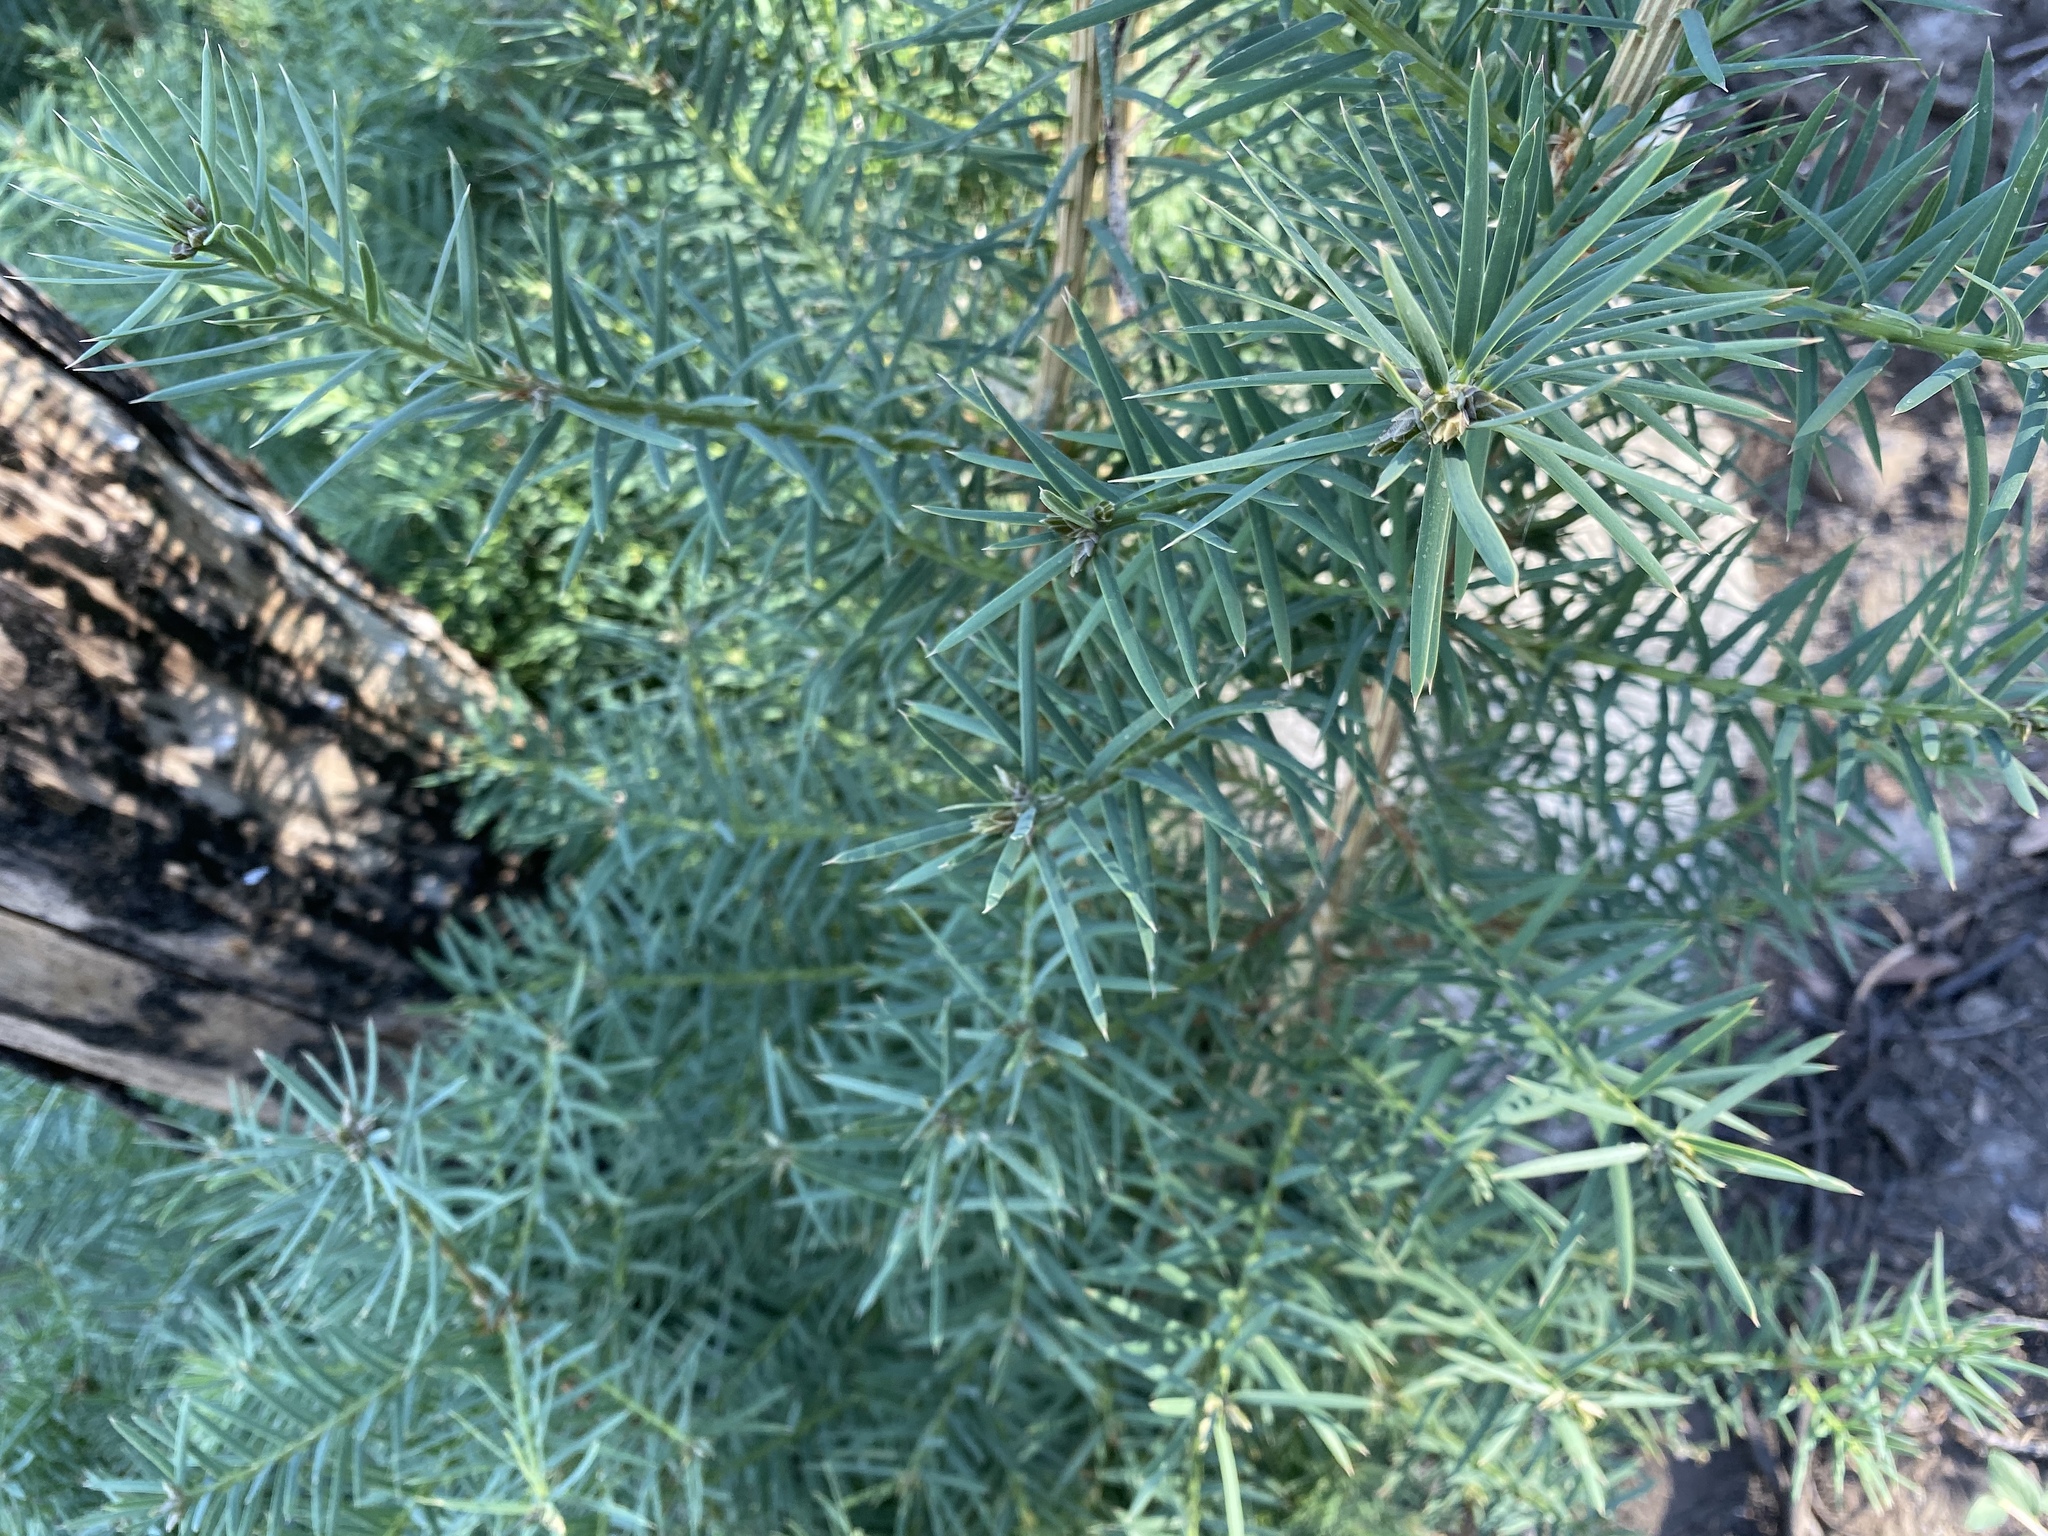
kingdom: Plantae
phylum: Tracheophyta
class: Pinopsida
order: Pinales
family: Taxaceae
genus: Torreya
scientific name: Torreya californica
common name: California torreya
